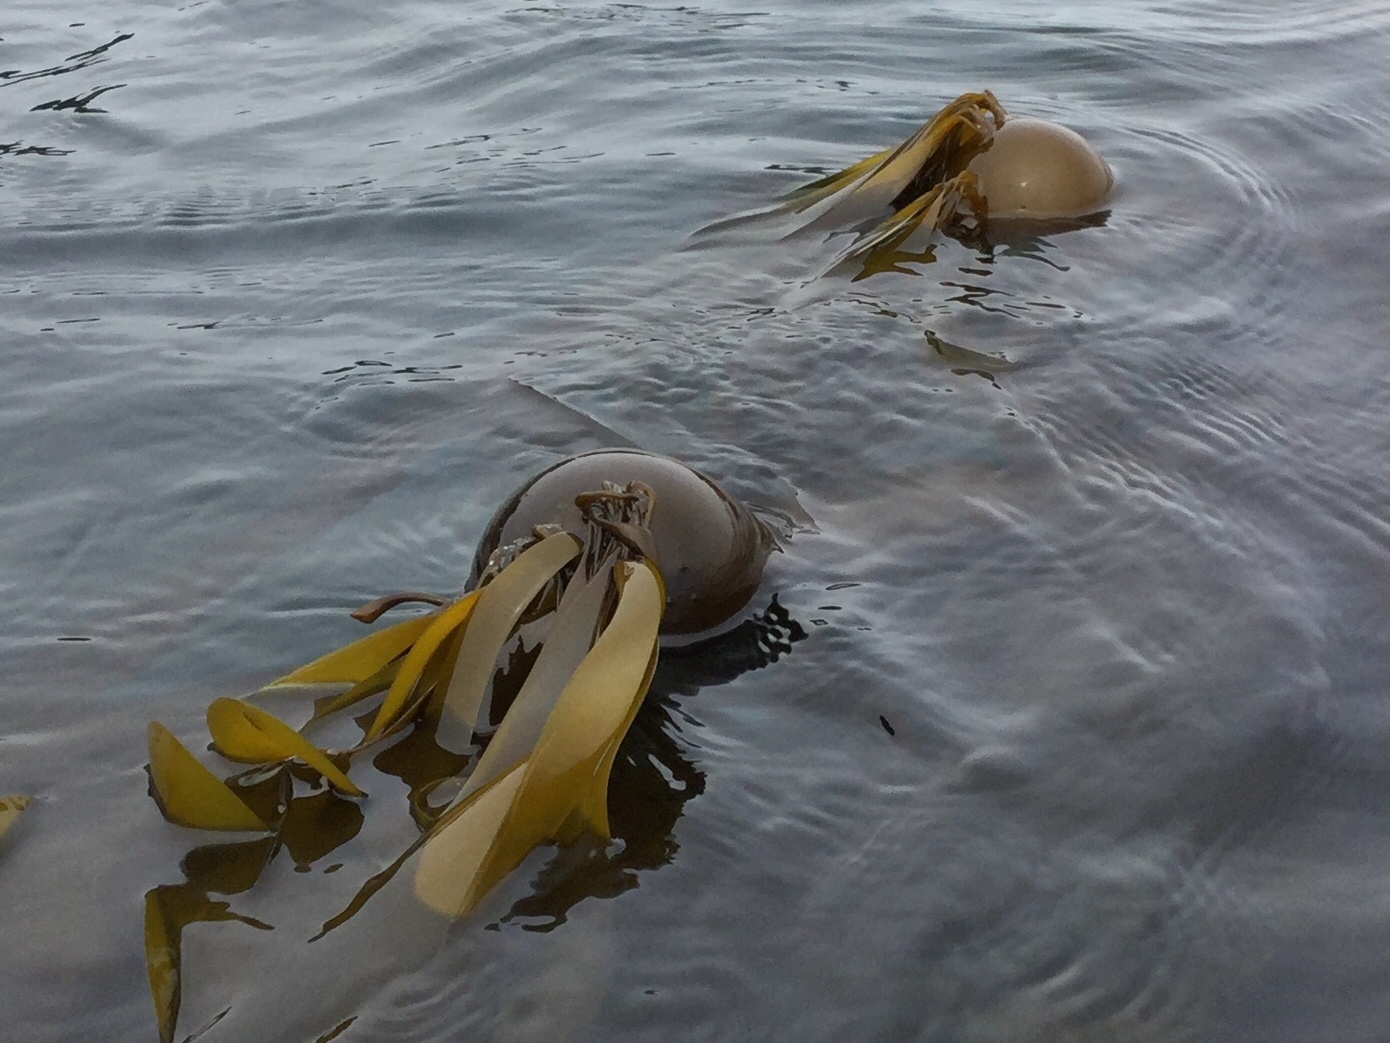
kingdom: Chromista
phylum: Ochrophyta
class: Phaeophyceae
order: Laminariales
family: Laminariaceae
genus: Nereocystis
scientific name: Nereocystis luetkeana
